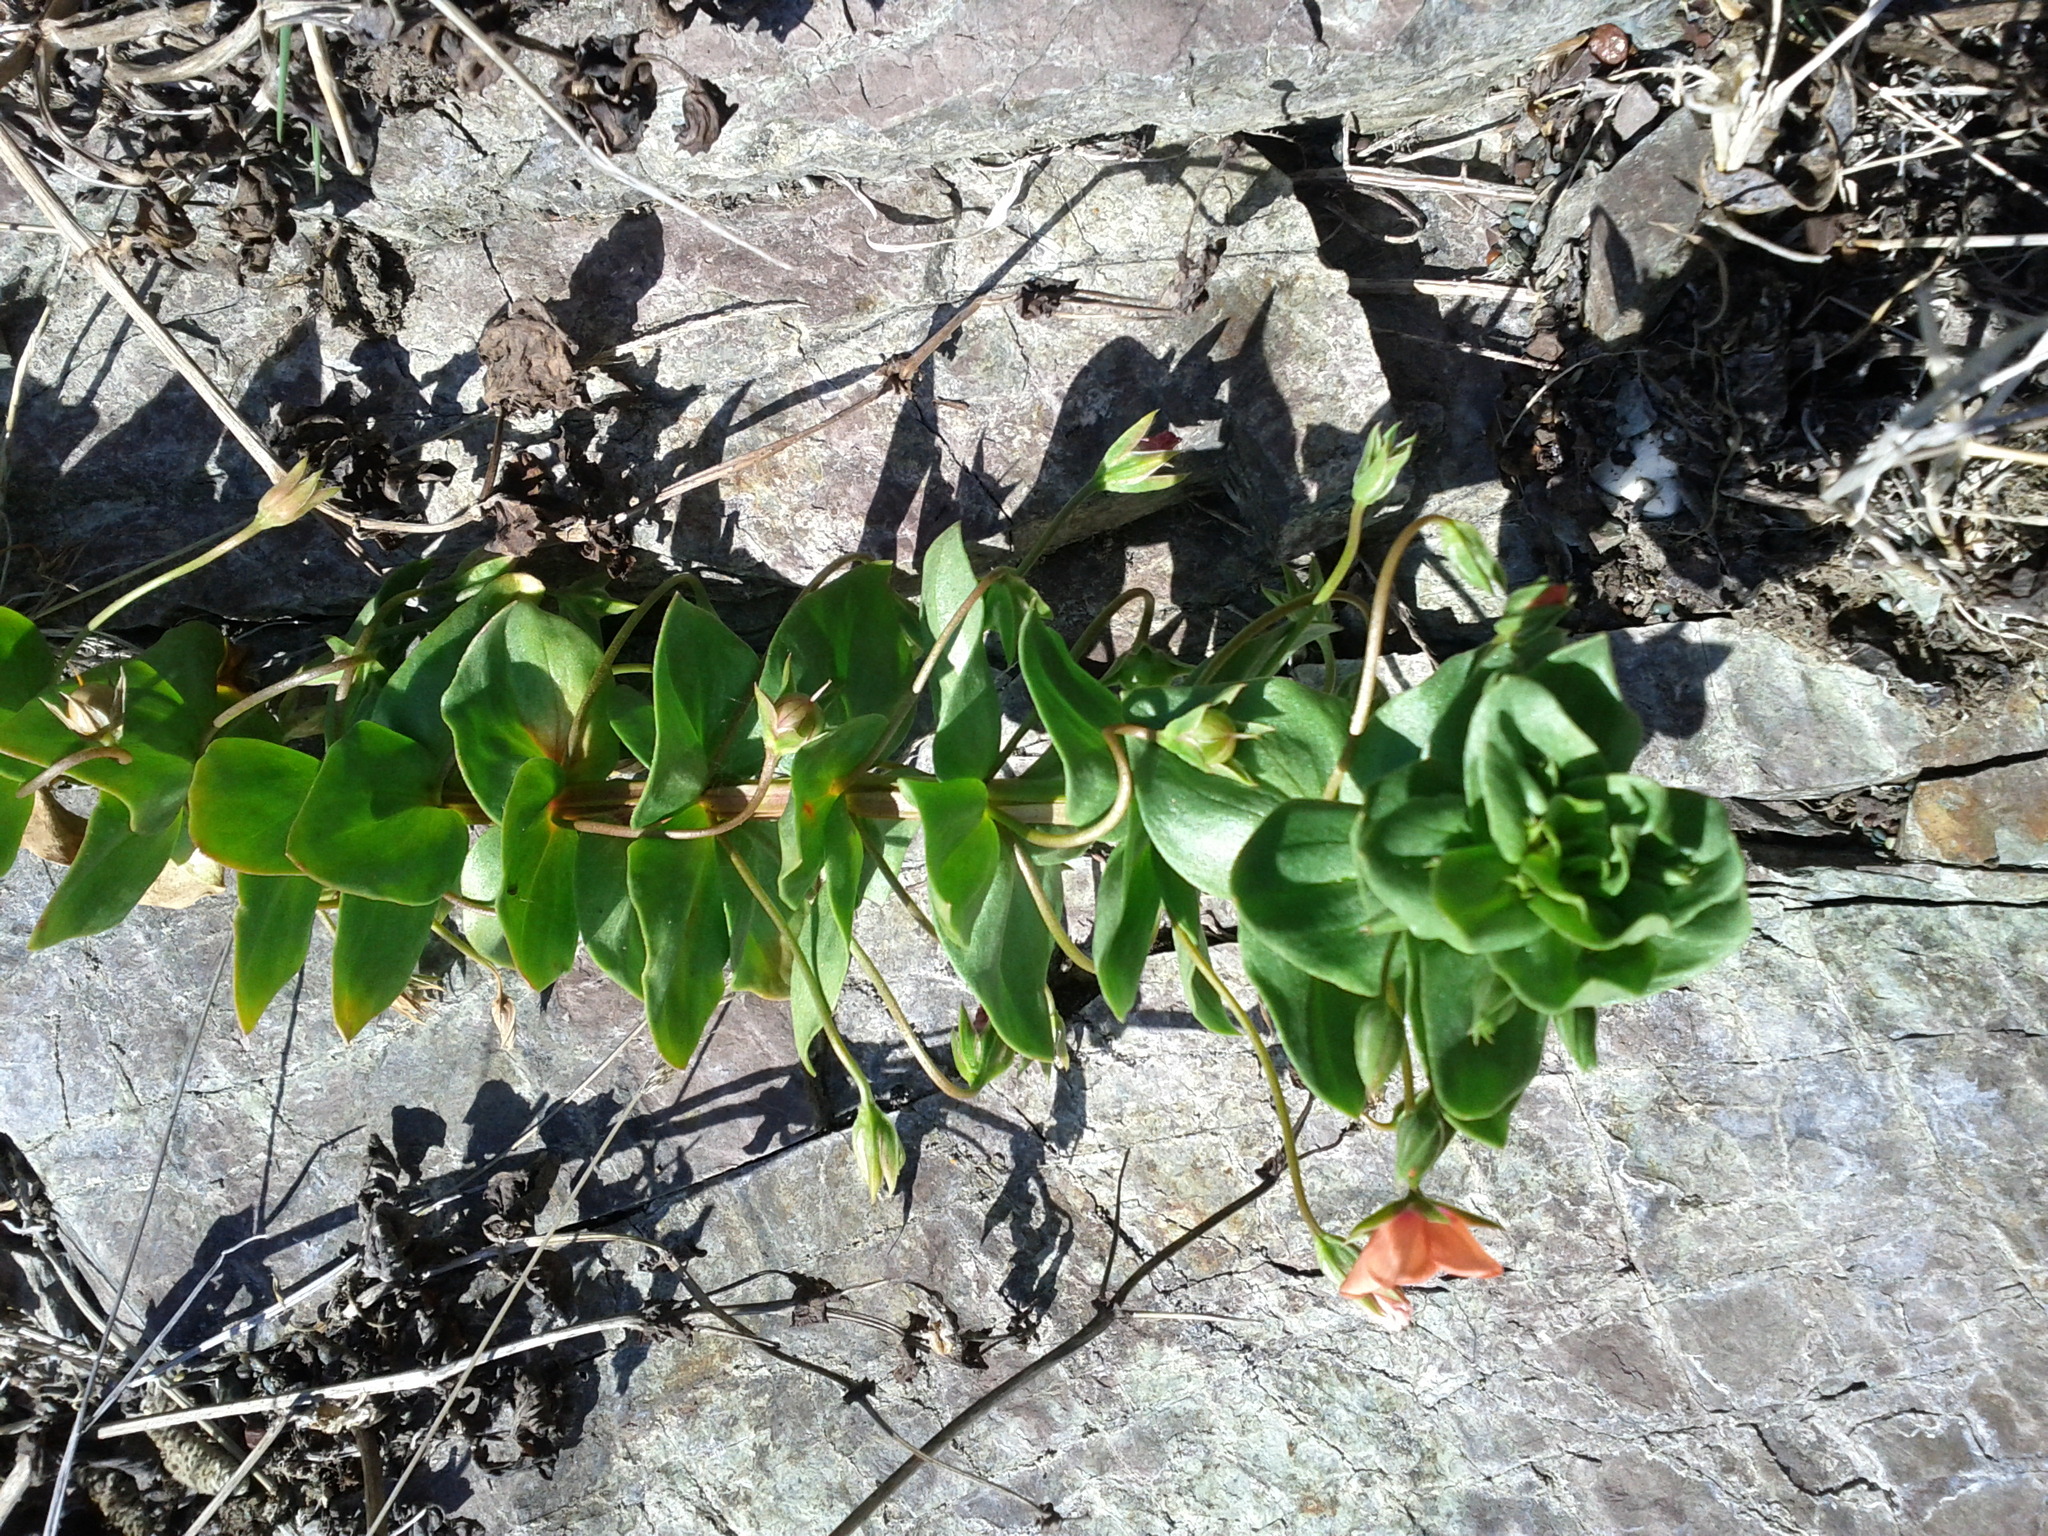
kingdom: Plantae
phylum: Tracheophyta
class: Magnoliopsida
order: Ericales
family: Primulaceae
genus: Lysimachia
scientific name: Lysimachia arvensis
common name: Scarlet pimpernel
